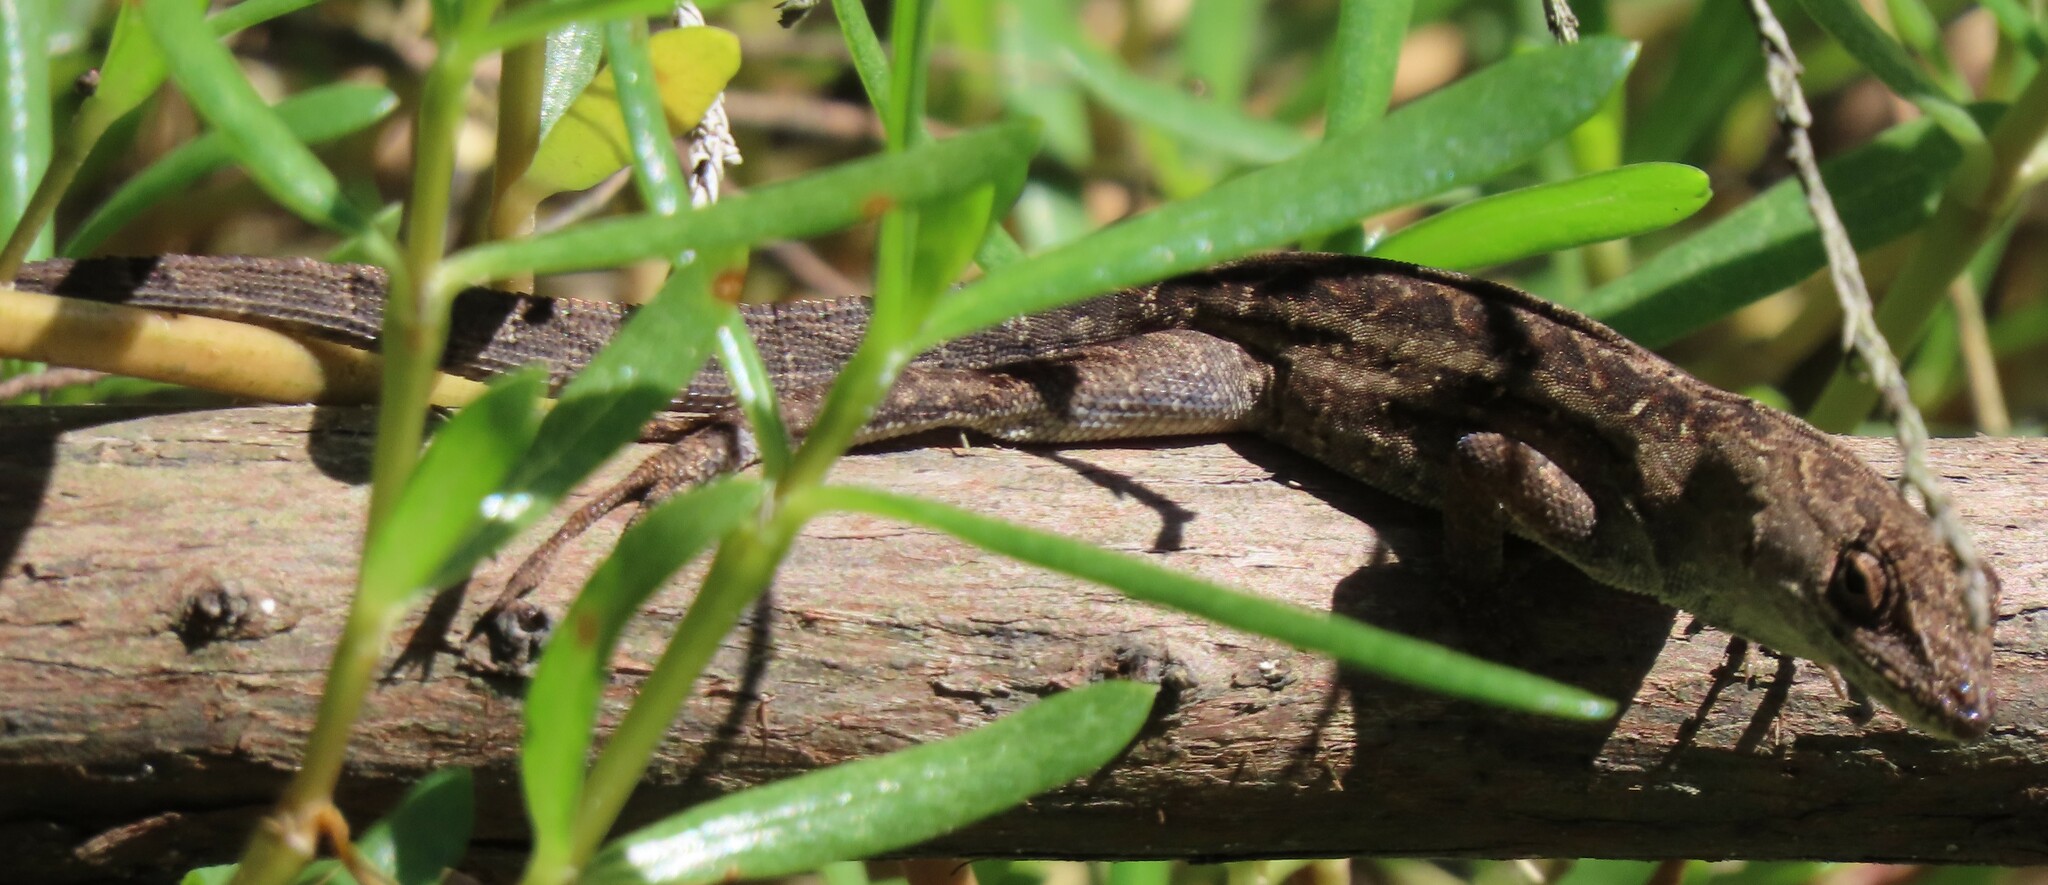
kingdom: Animalia
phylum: Chordata
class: Squamata
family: Dactyloidae
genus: Anolis
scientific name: Anolis sagrei
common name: Brown anole
